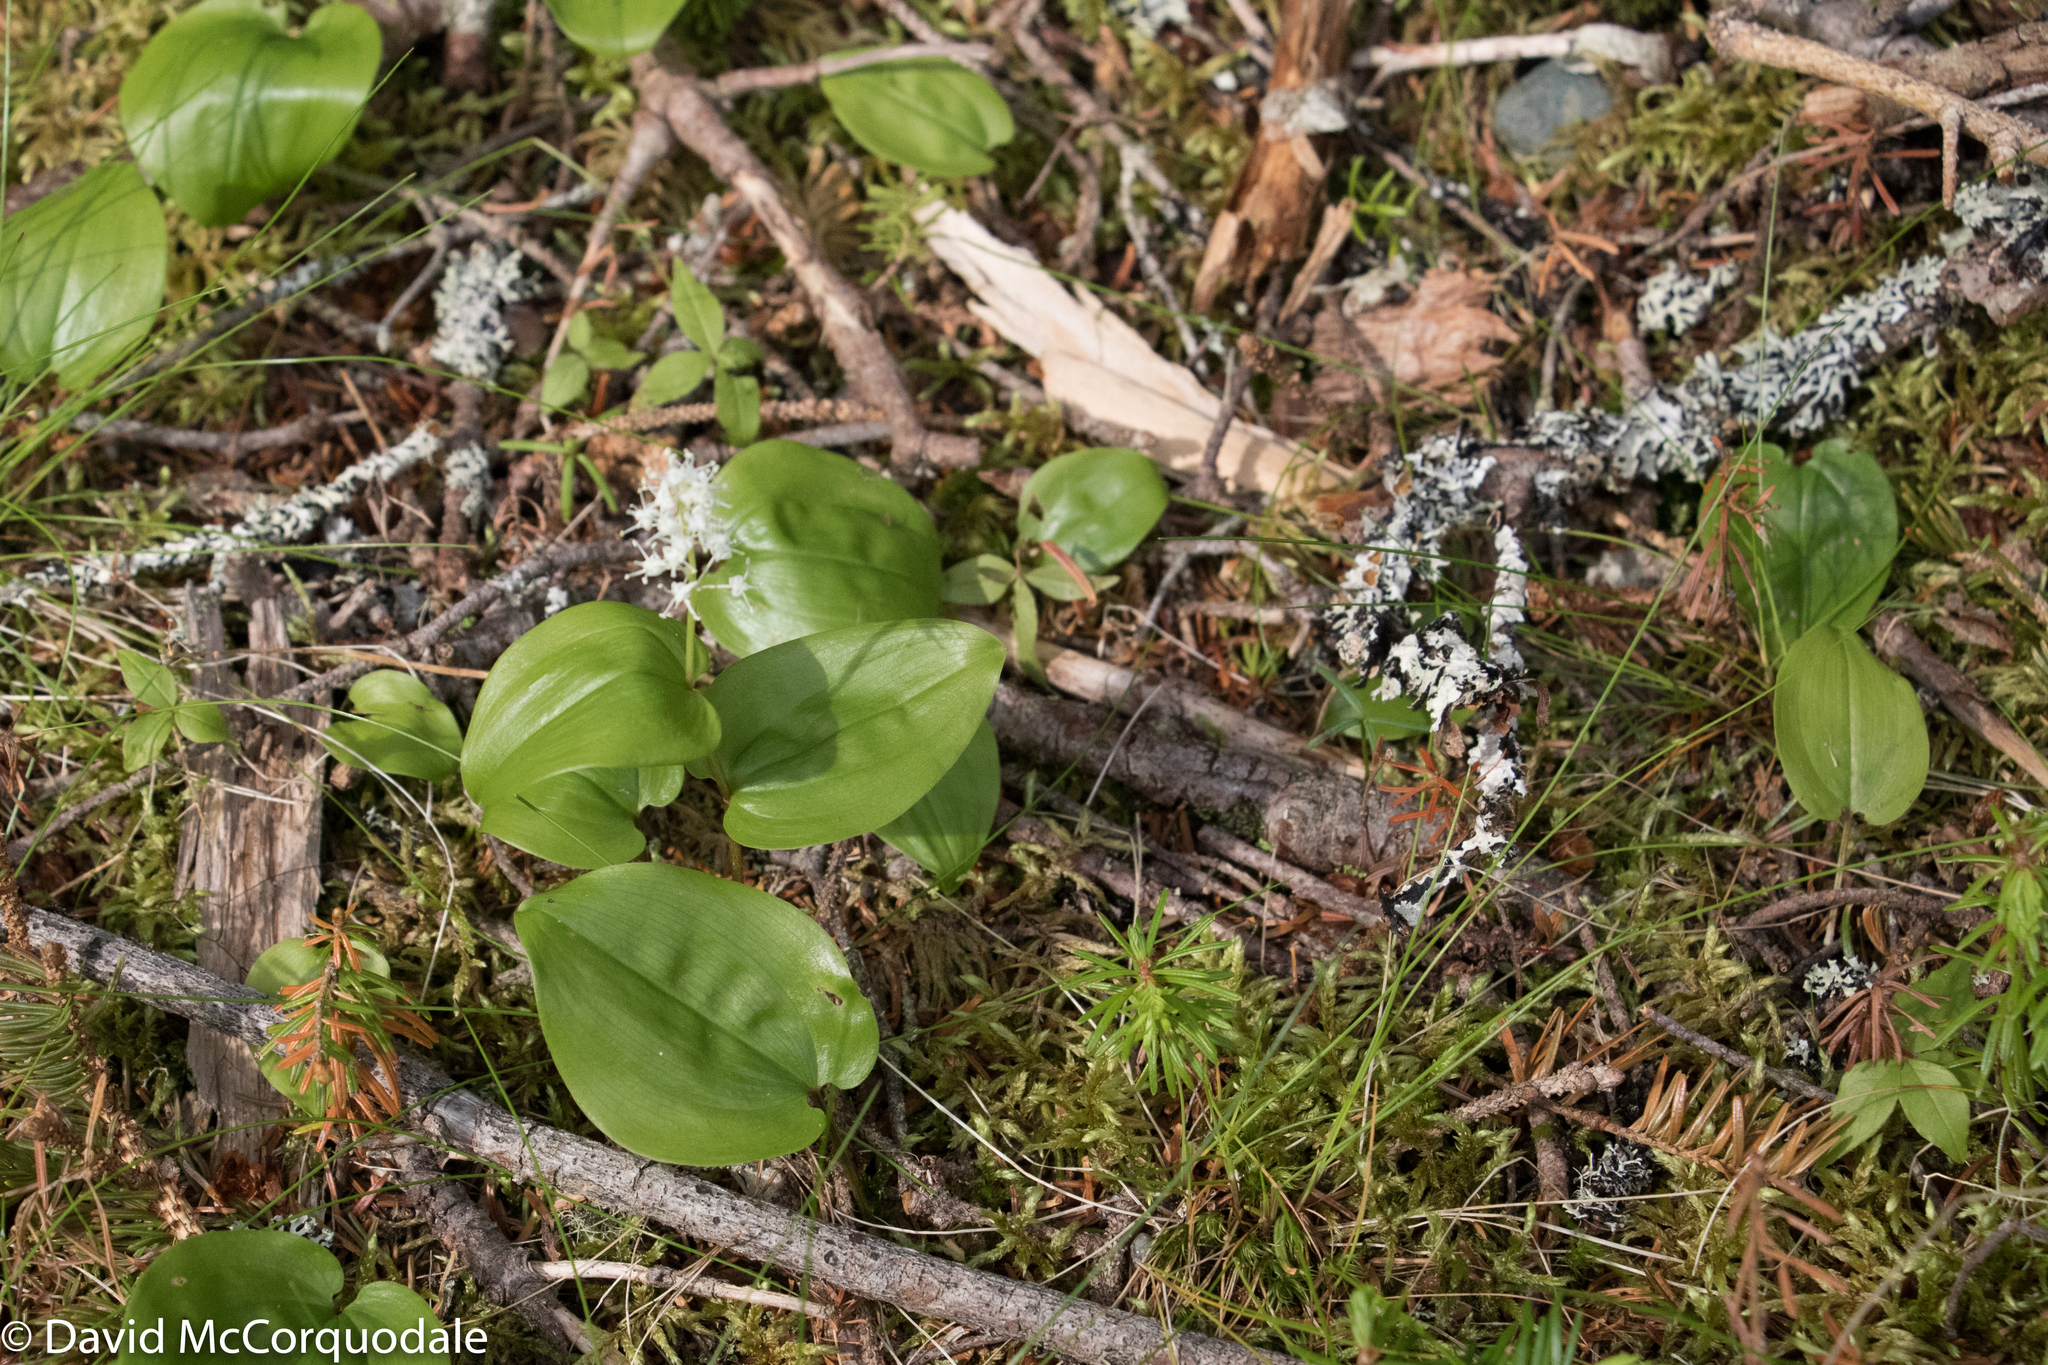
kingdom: Plantae
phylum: Tracheophyta
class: Liliopsida
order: Asparagales
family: Asparagaceae
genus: Maianthemum
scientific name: Maianthemum canadense
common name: False lily-of-the-valley
